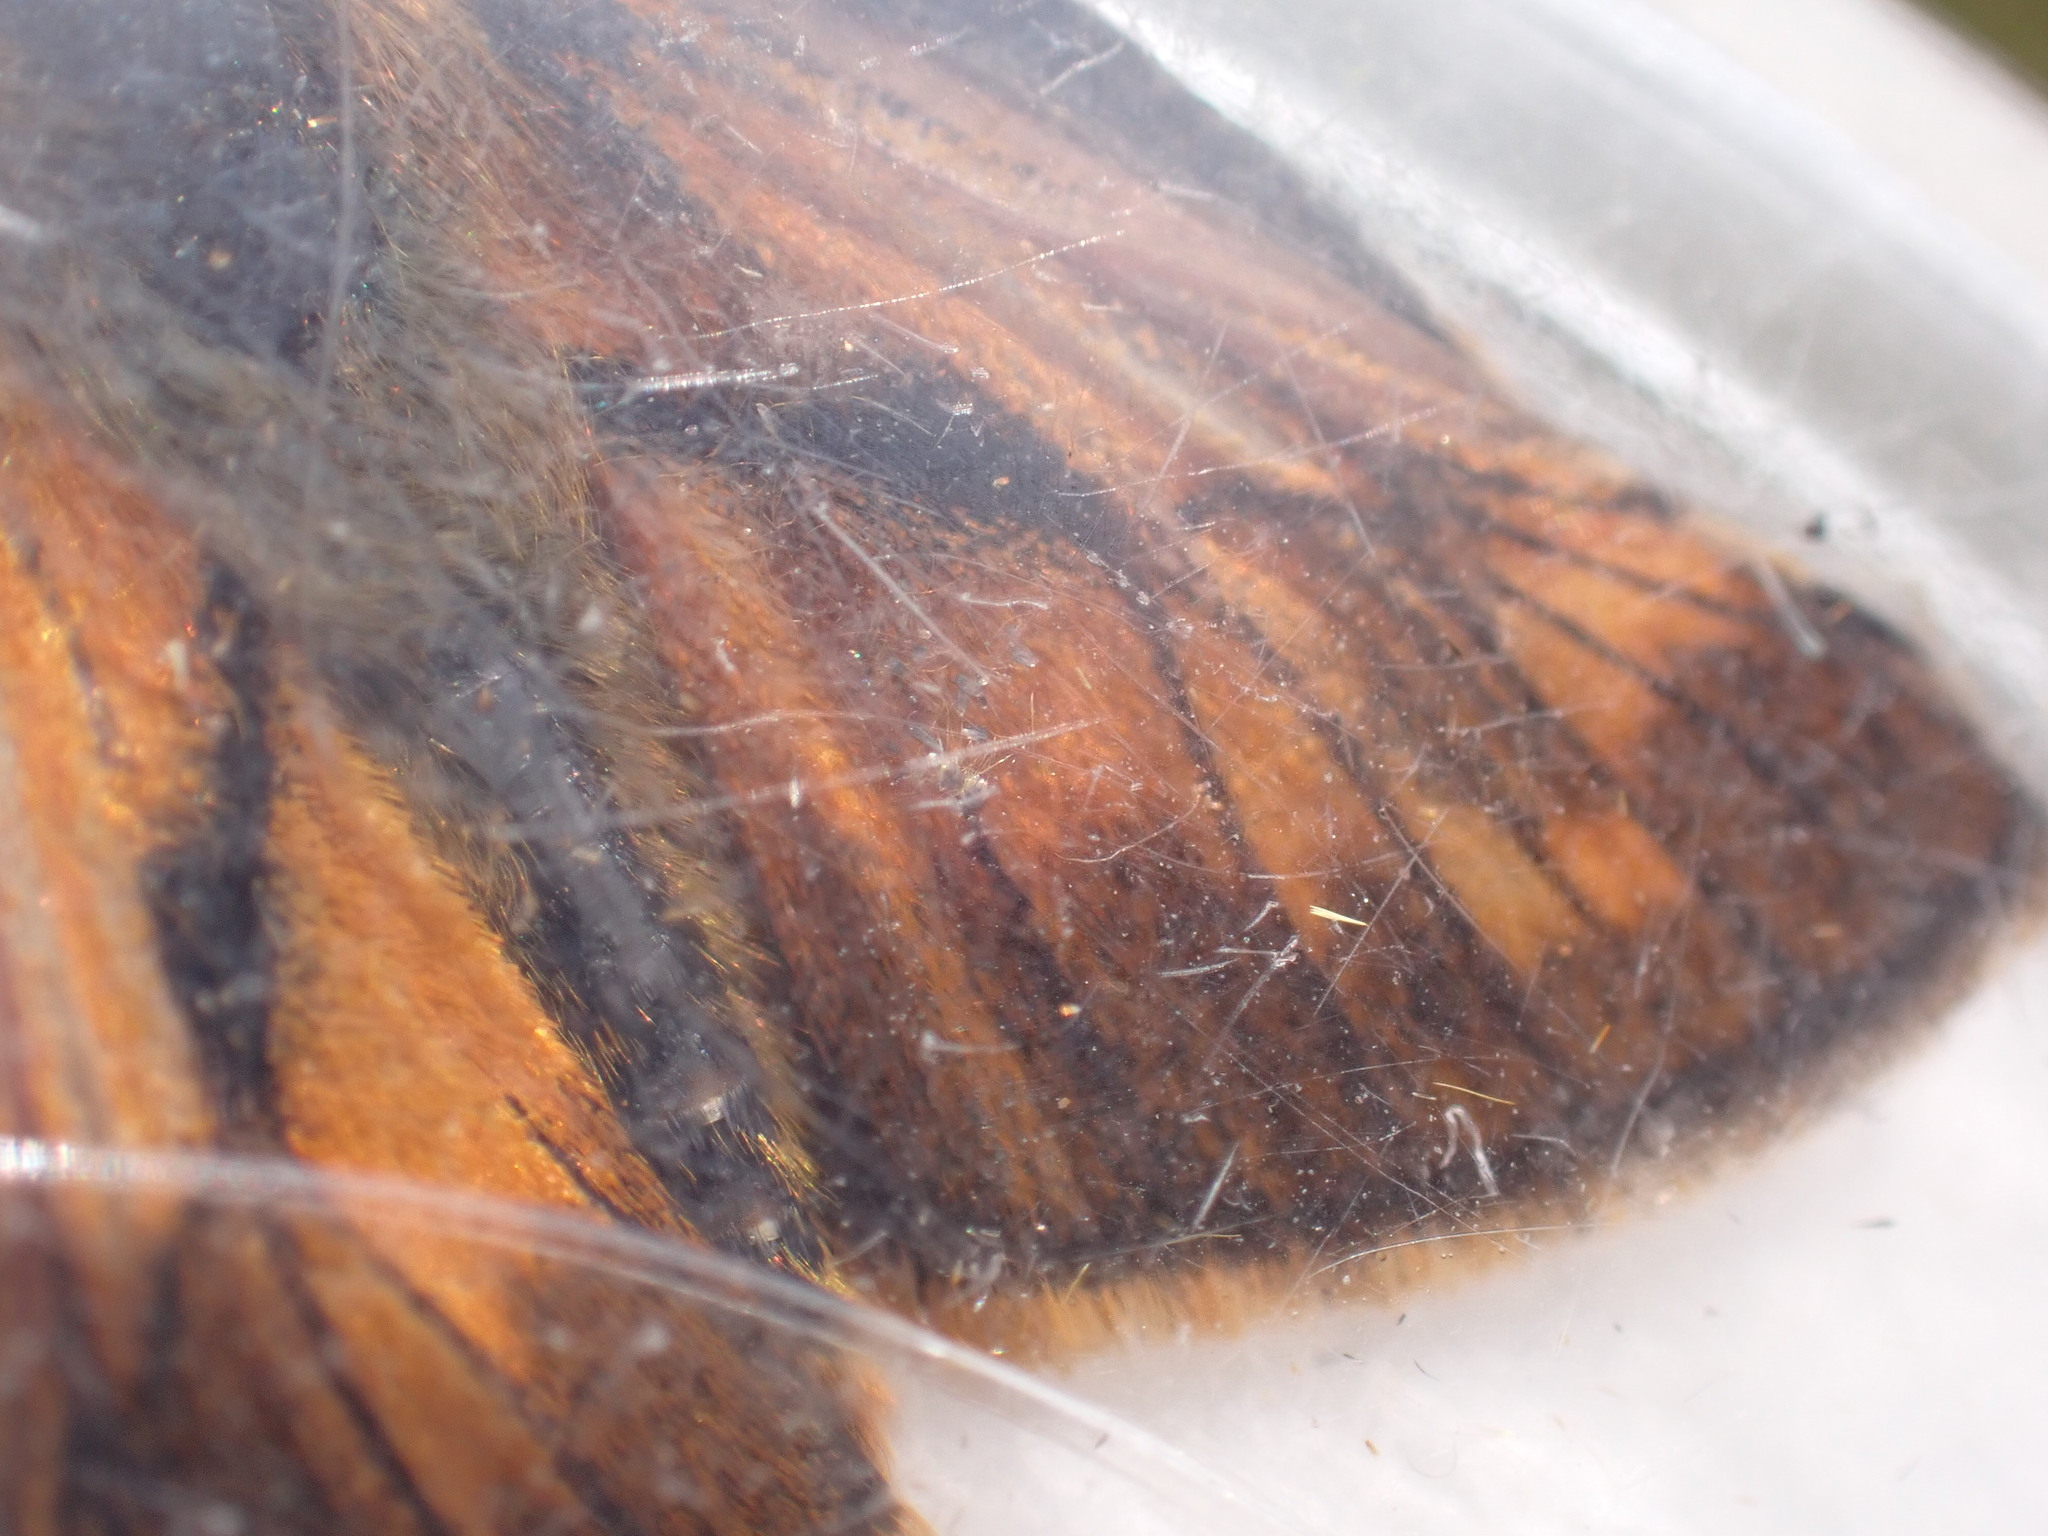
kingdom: Animalia
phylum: Arthropoda
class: Insecta
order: Lepidoptera
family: Hesperiidae
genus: Ochlodes
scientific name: Ochlodes venata
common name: Large skipper
